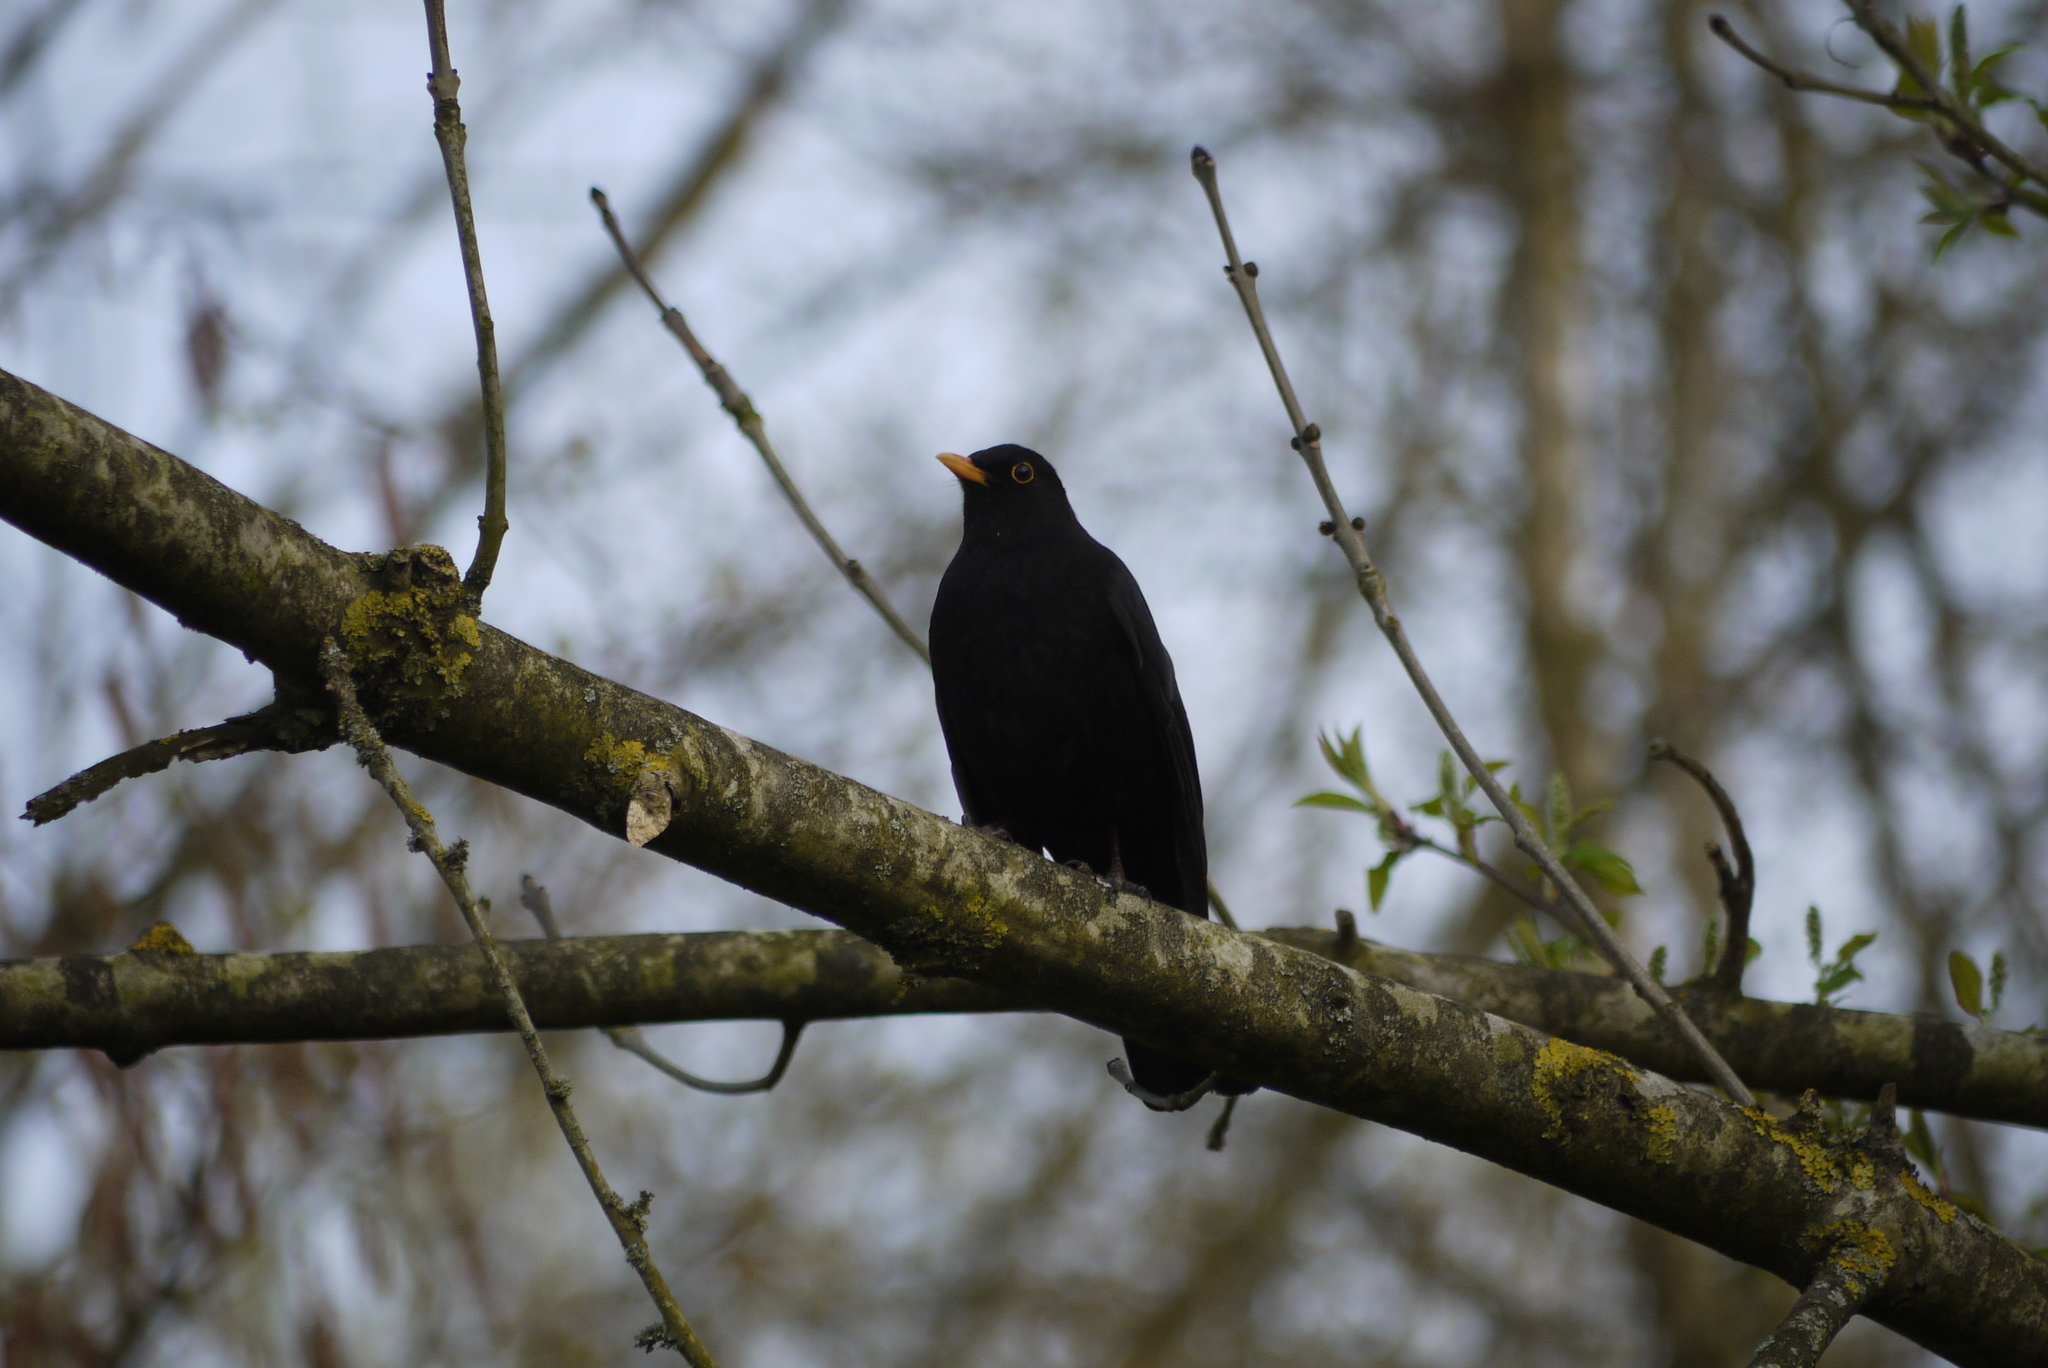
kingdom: Animalia
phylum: Chordata
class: Aves
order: Passeriformes
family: Turdidae
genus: Turdus
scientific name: Turdus merula
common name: Common blackbird
